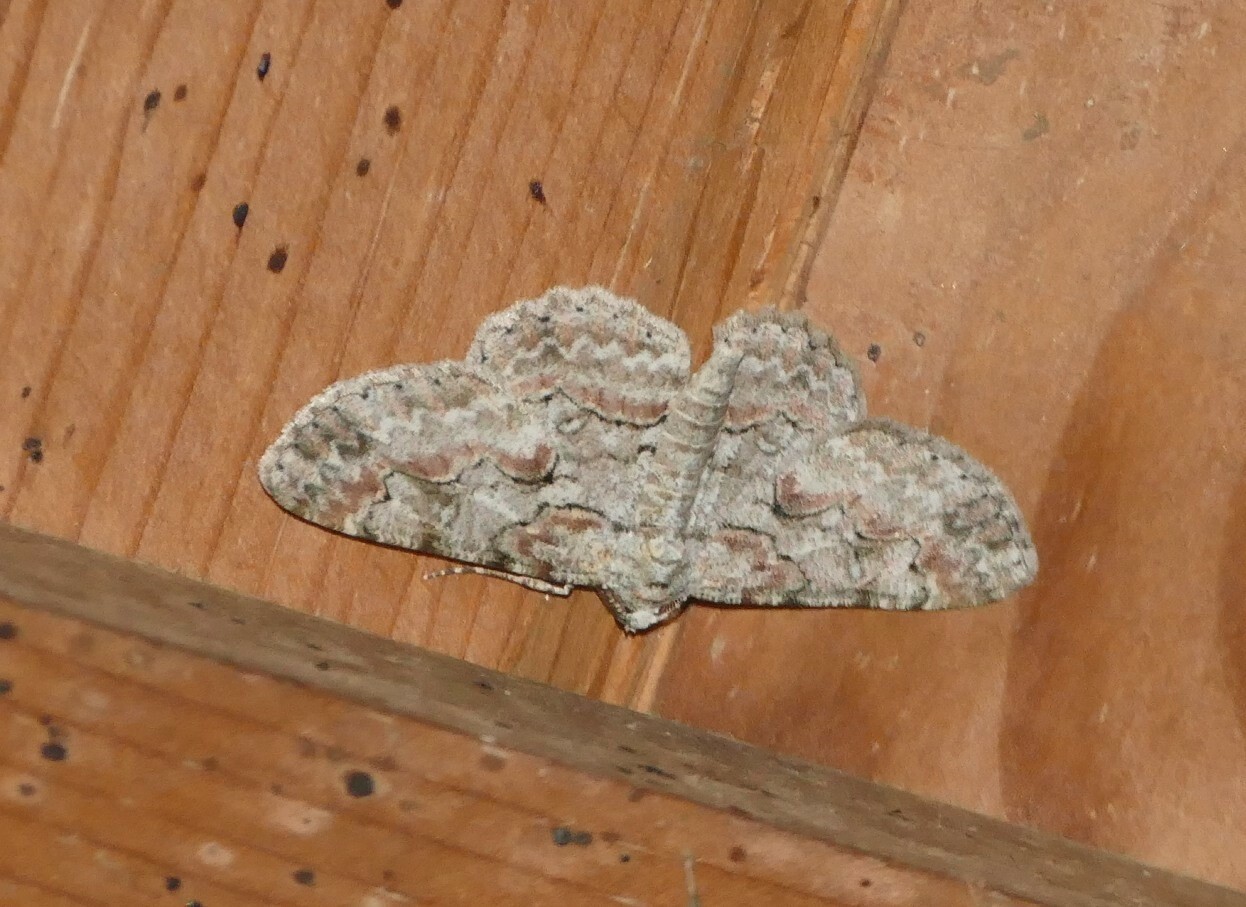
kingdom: Animalia
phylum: Arthropoda
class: Insecta
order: Lepidoptera
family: Geometridae
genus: Iridopsis
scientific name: Iridopsis defectaria
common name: Brown-shaded gray
